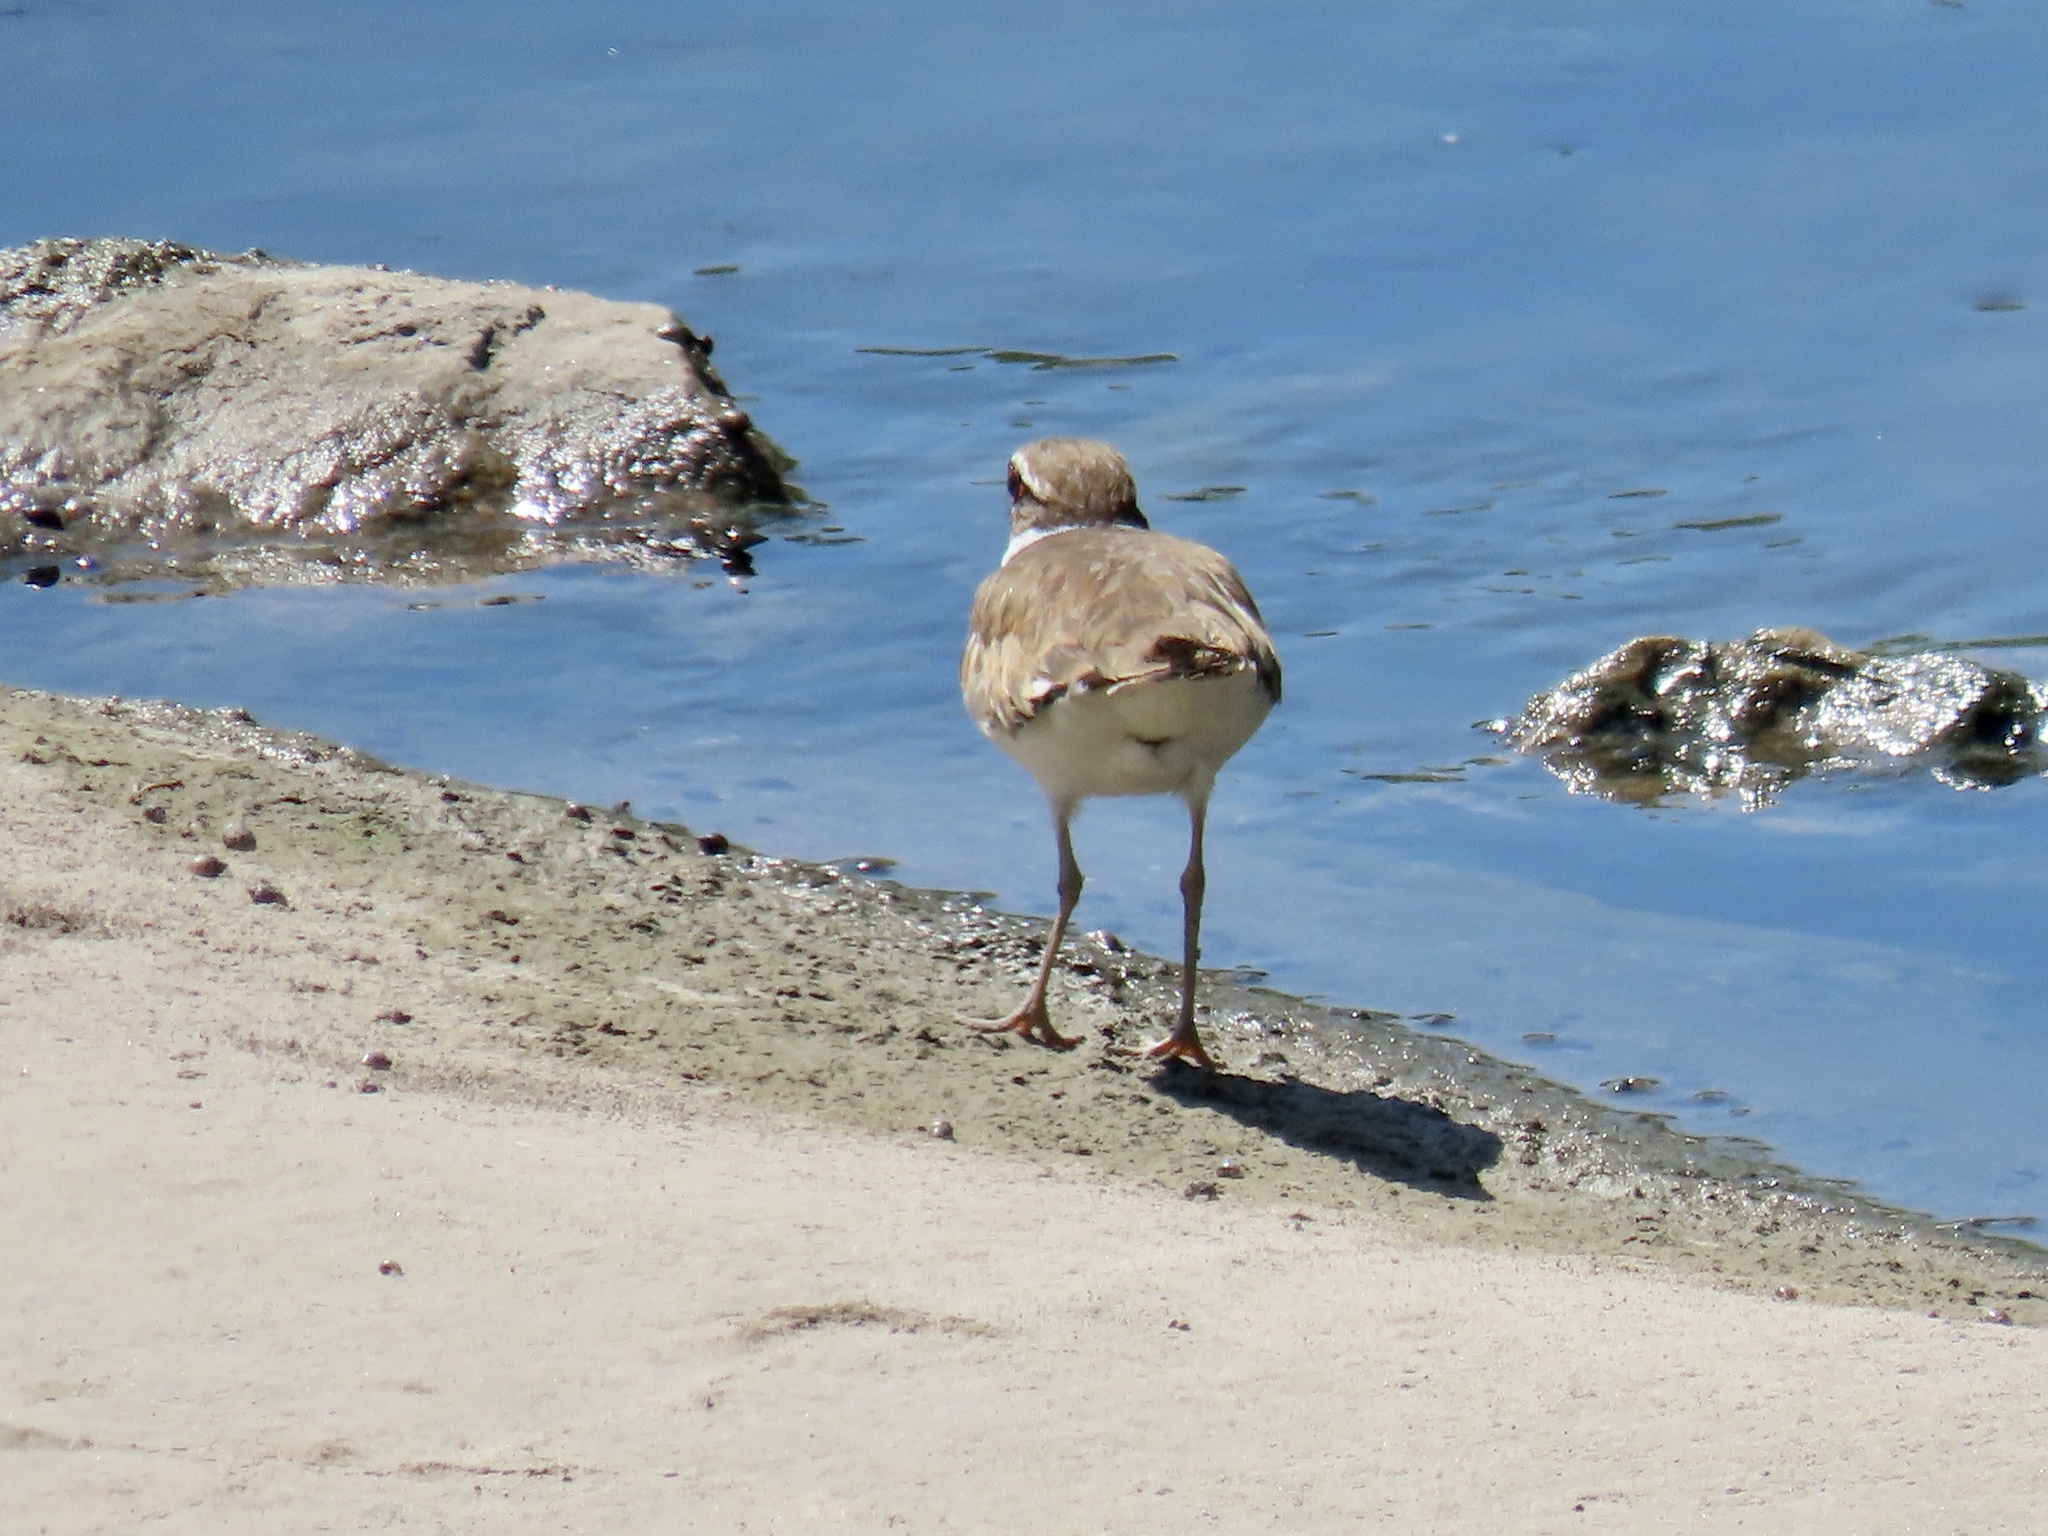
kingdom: Animalia
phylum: Chordata
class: Aves
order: Charadriiformes
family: Charadriidae
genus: Charadrius
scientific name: Charadrius vociferus
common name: Killdeer
